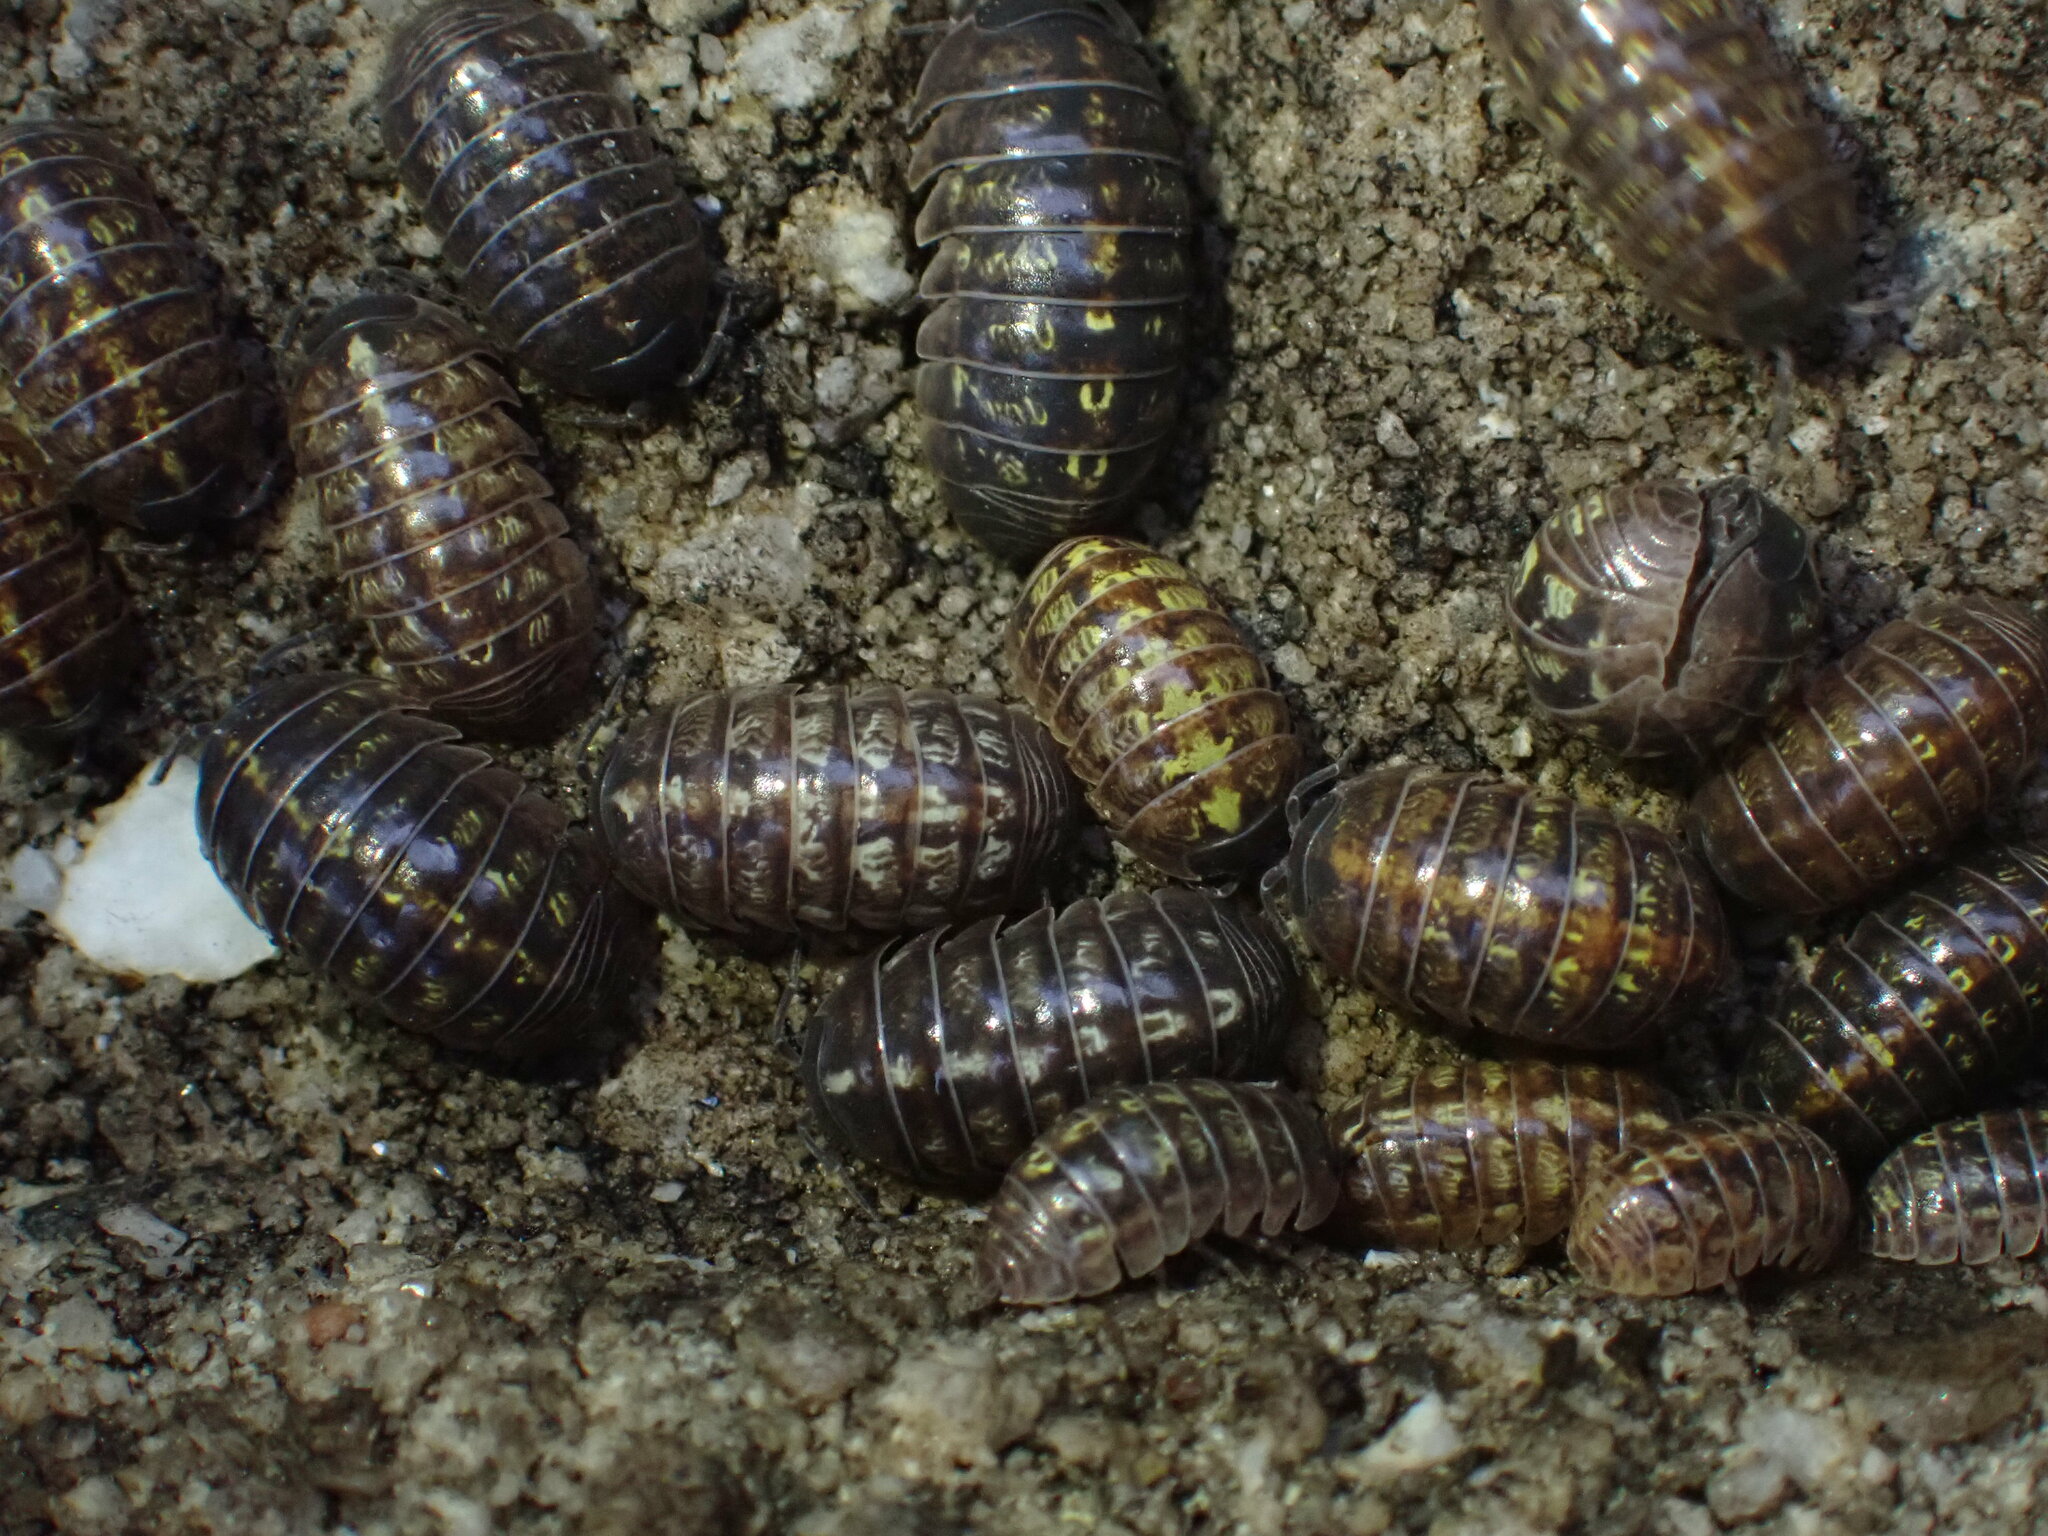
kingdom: Animalia
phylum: Arthropoda
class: Malacostraca
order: Isopoda
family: Armadillidiidae
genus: Armadillidium
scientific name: Armadillidium vulgare
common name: Common pill woodlouse
